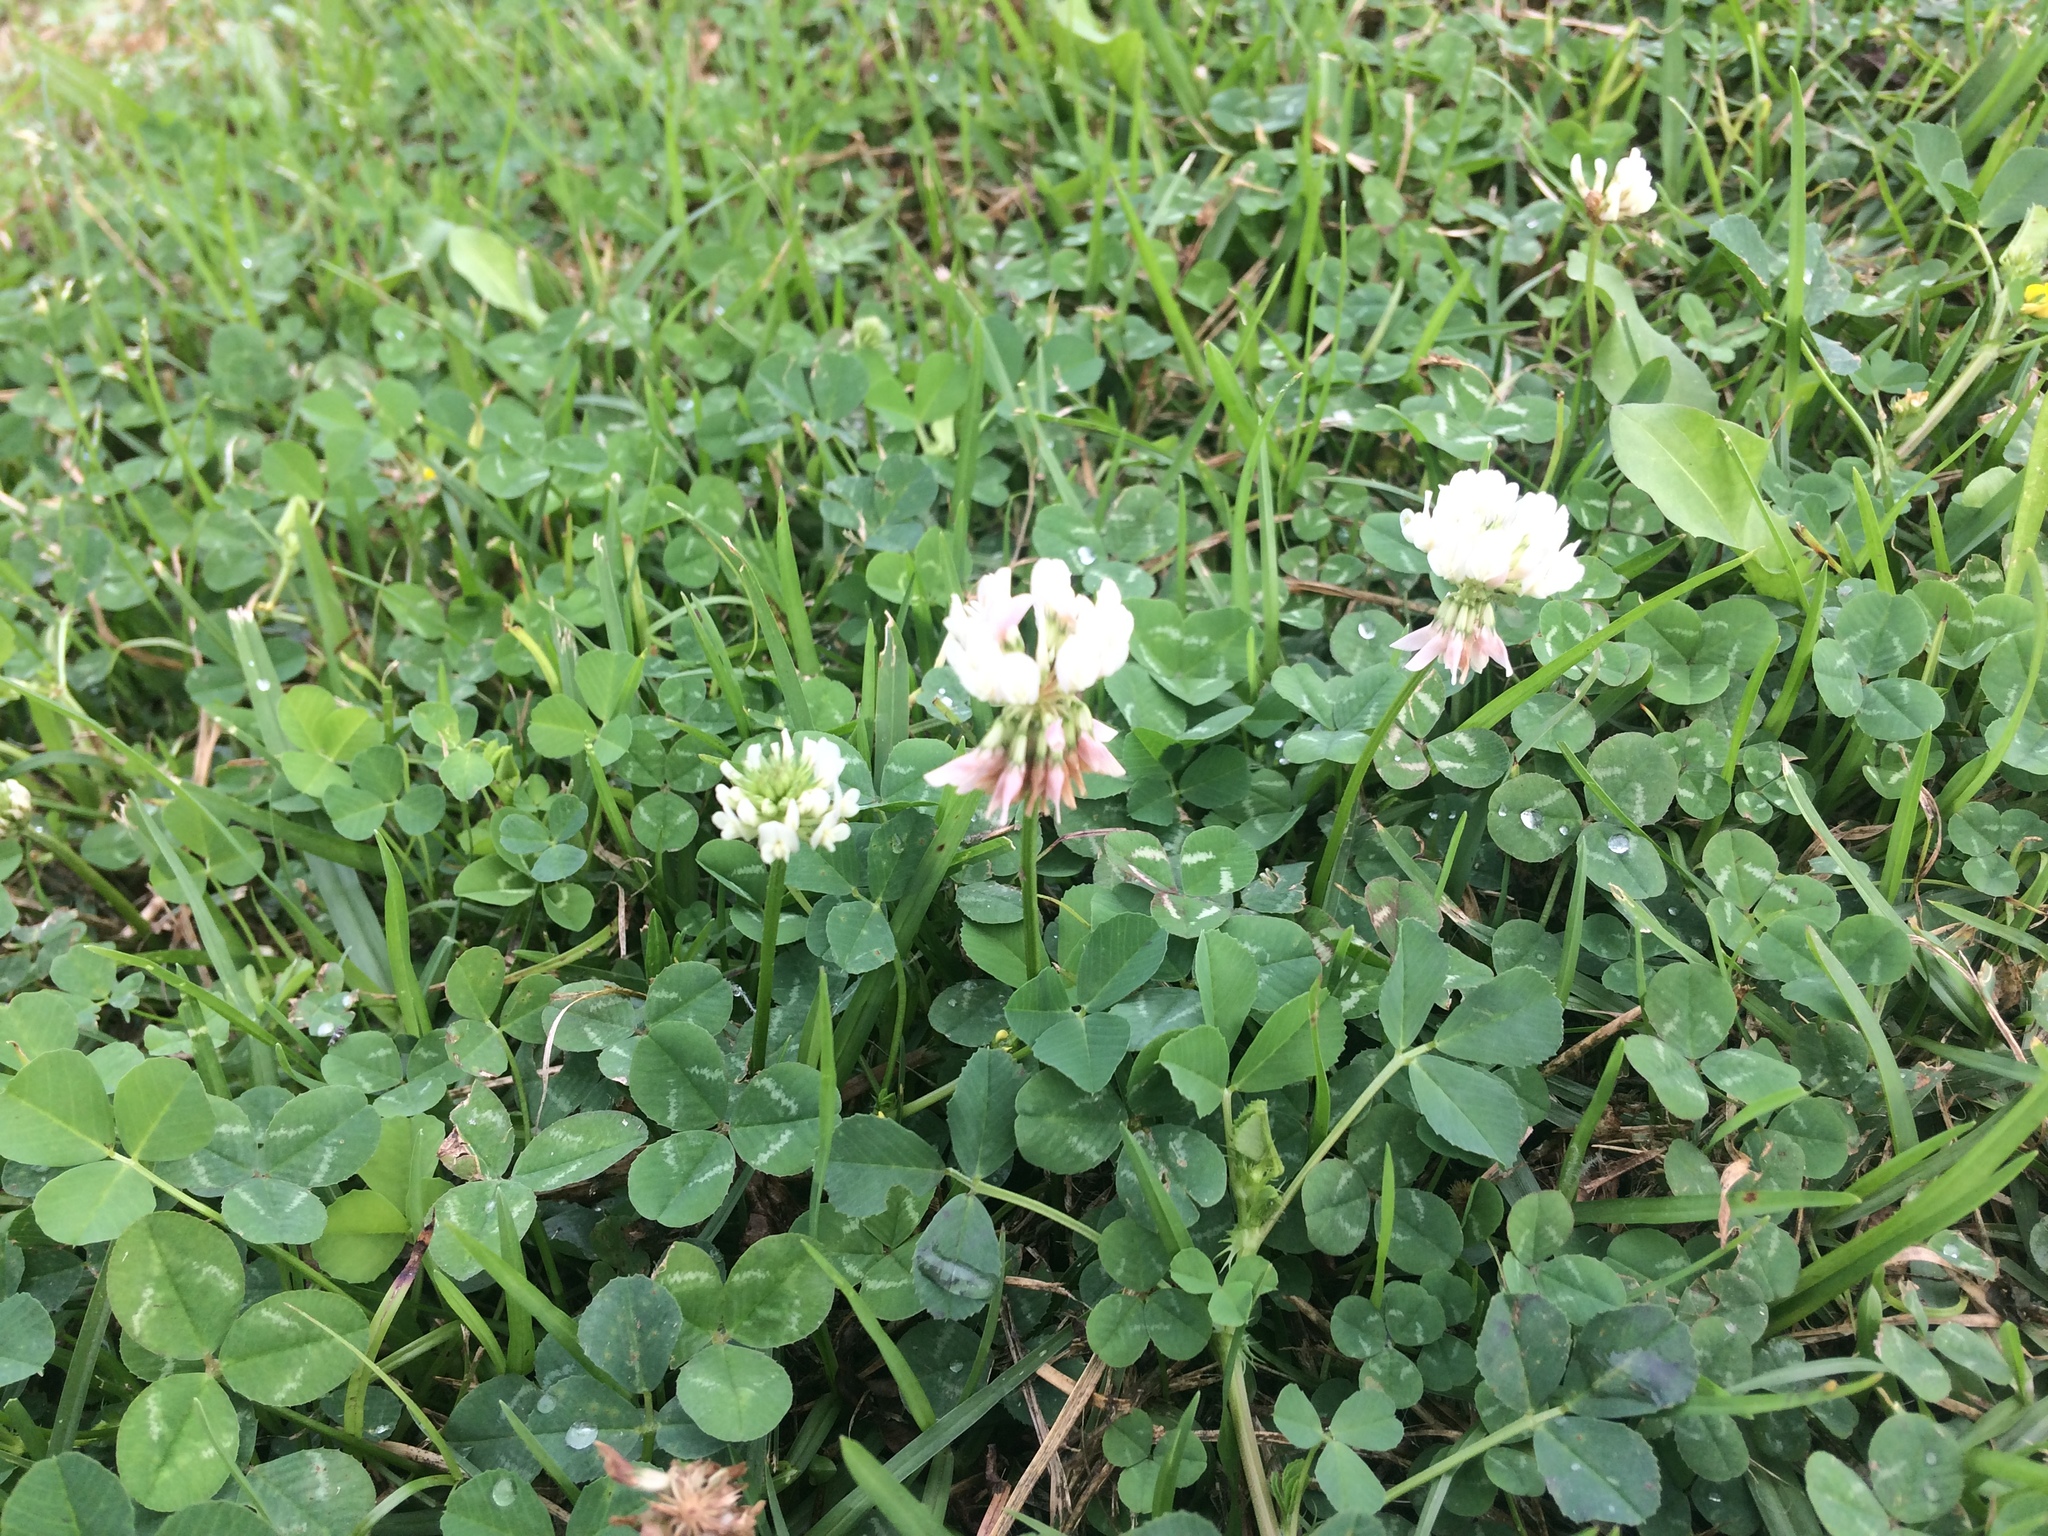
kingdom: Plantae
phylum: Tracheophyta
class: Magnoliopsida
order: Fabales
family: Fabaceae
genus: Trifolium
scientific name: Trifolium repens
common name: White clover
